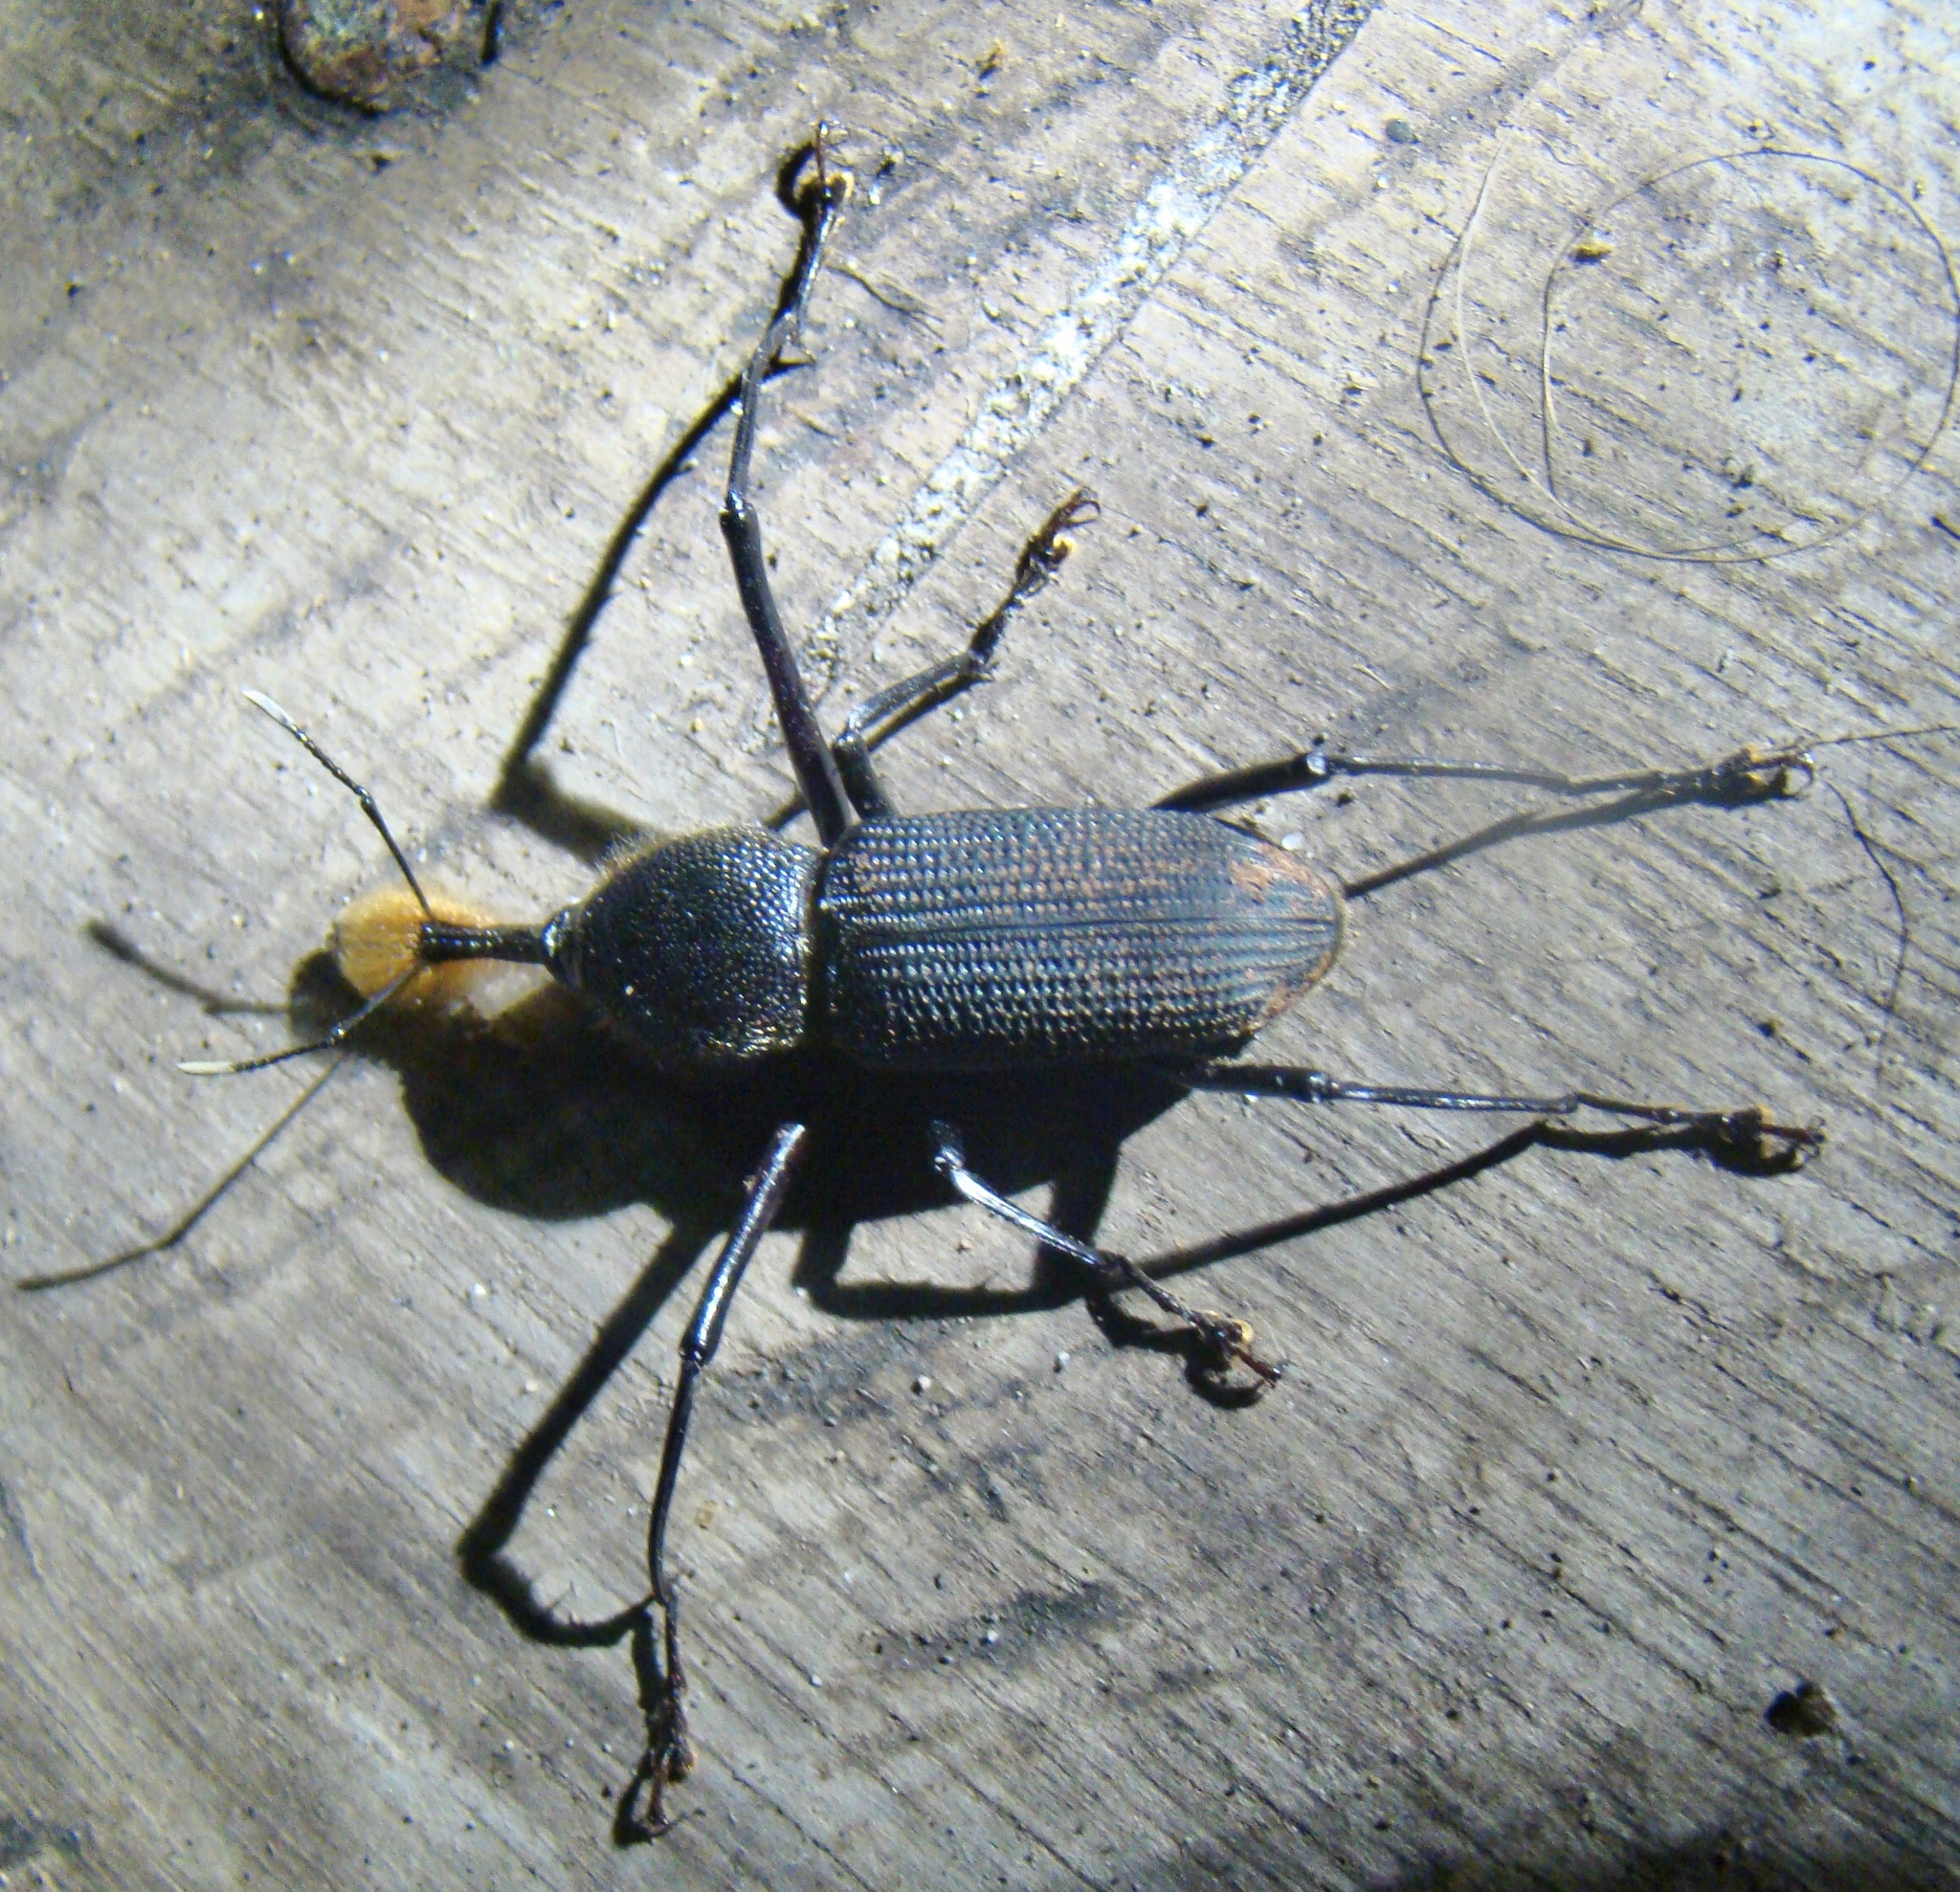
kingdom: Animalia
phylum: Arthropoda
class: Insecta
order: Coleoptera
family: Dryophthoridae
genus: Rhinostomus
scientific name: Rhinostomus barbirostris
